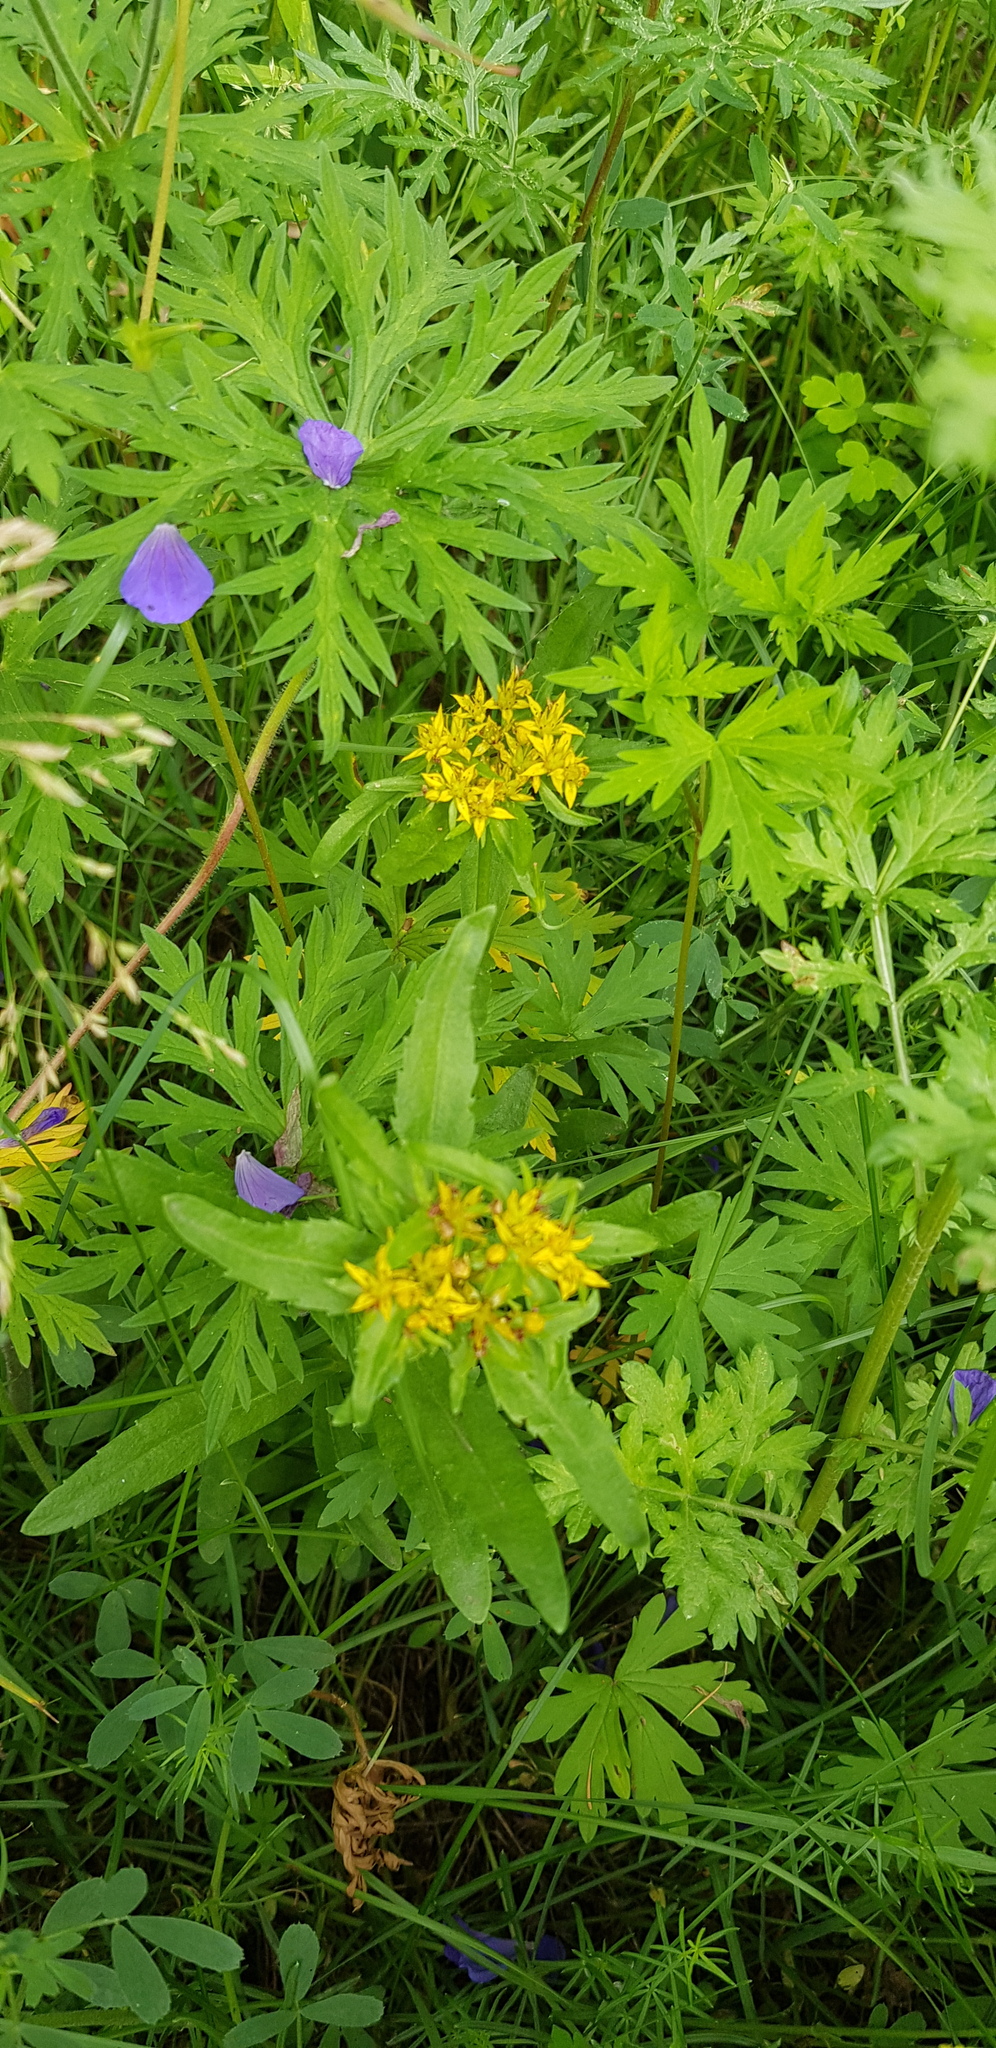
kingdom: Plantae
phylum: Tracheophyta
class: Magnoliopsida
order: Saxifragales
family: Crassulaceae
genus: Phedimus
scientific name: Phedimus aizoon
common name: Orpin aizoon
